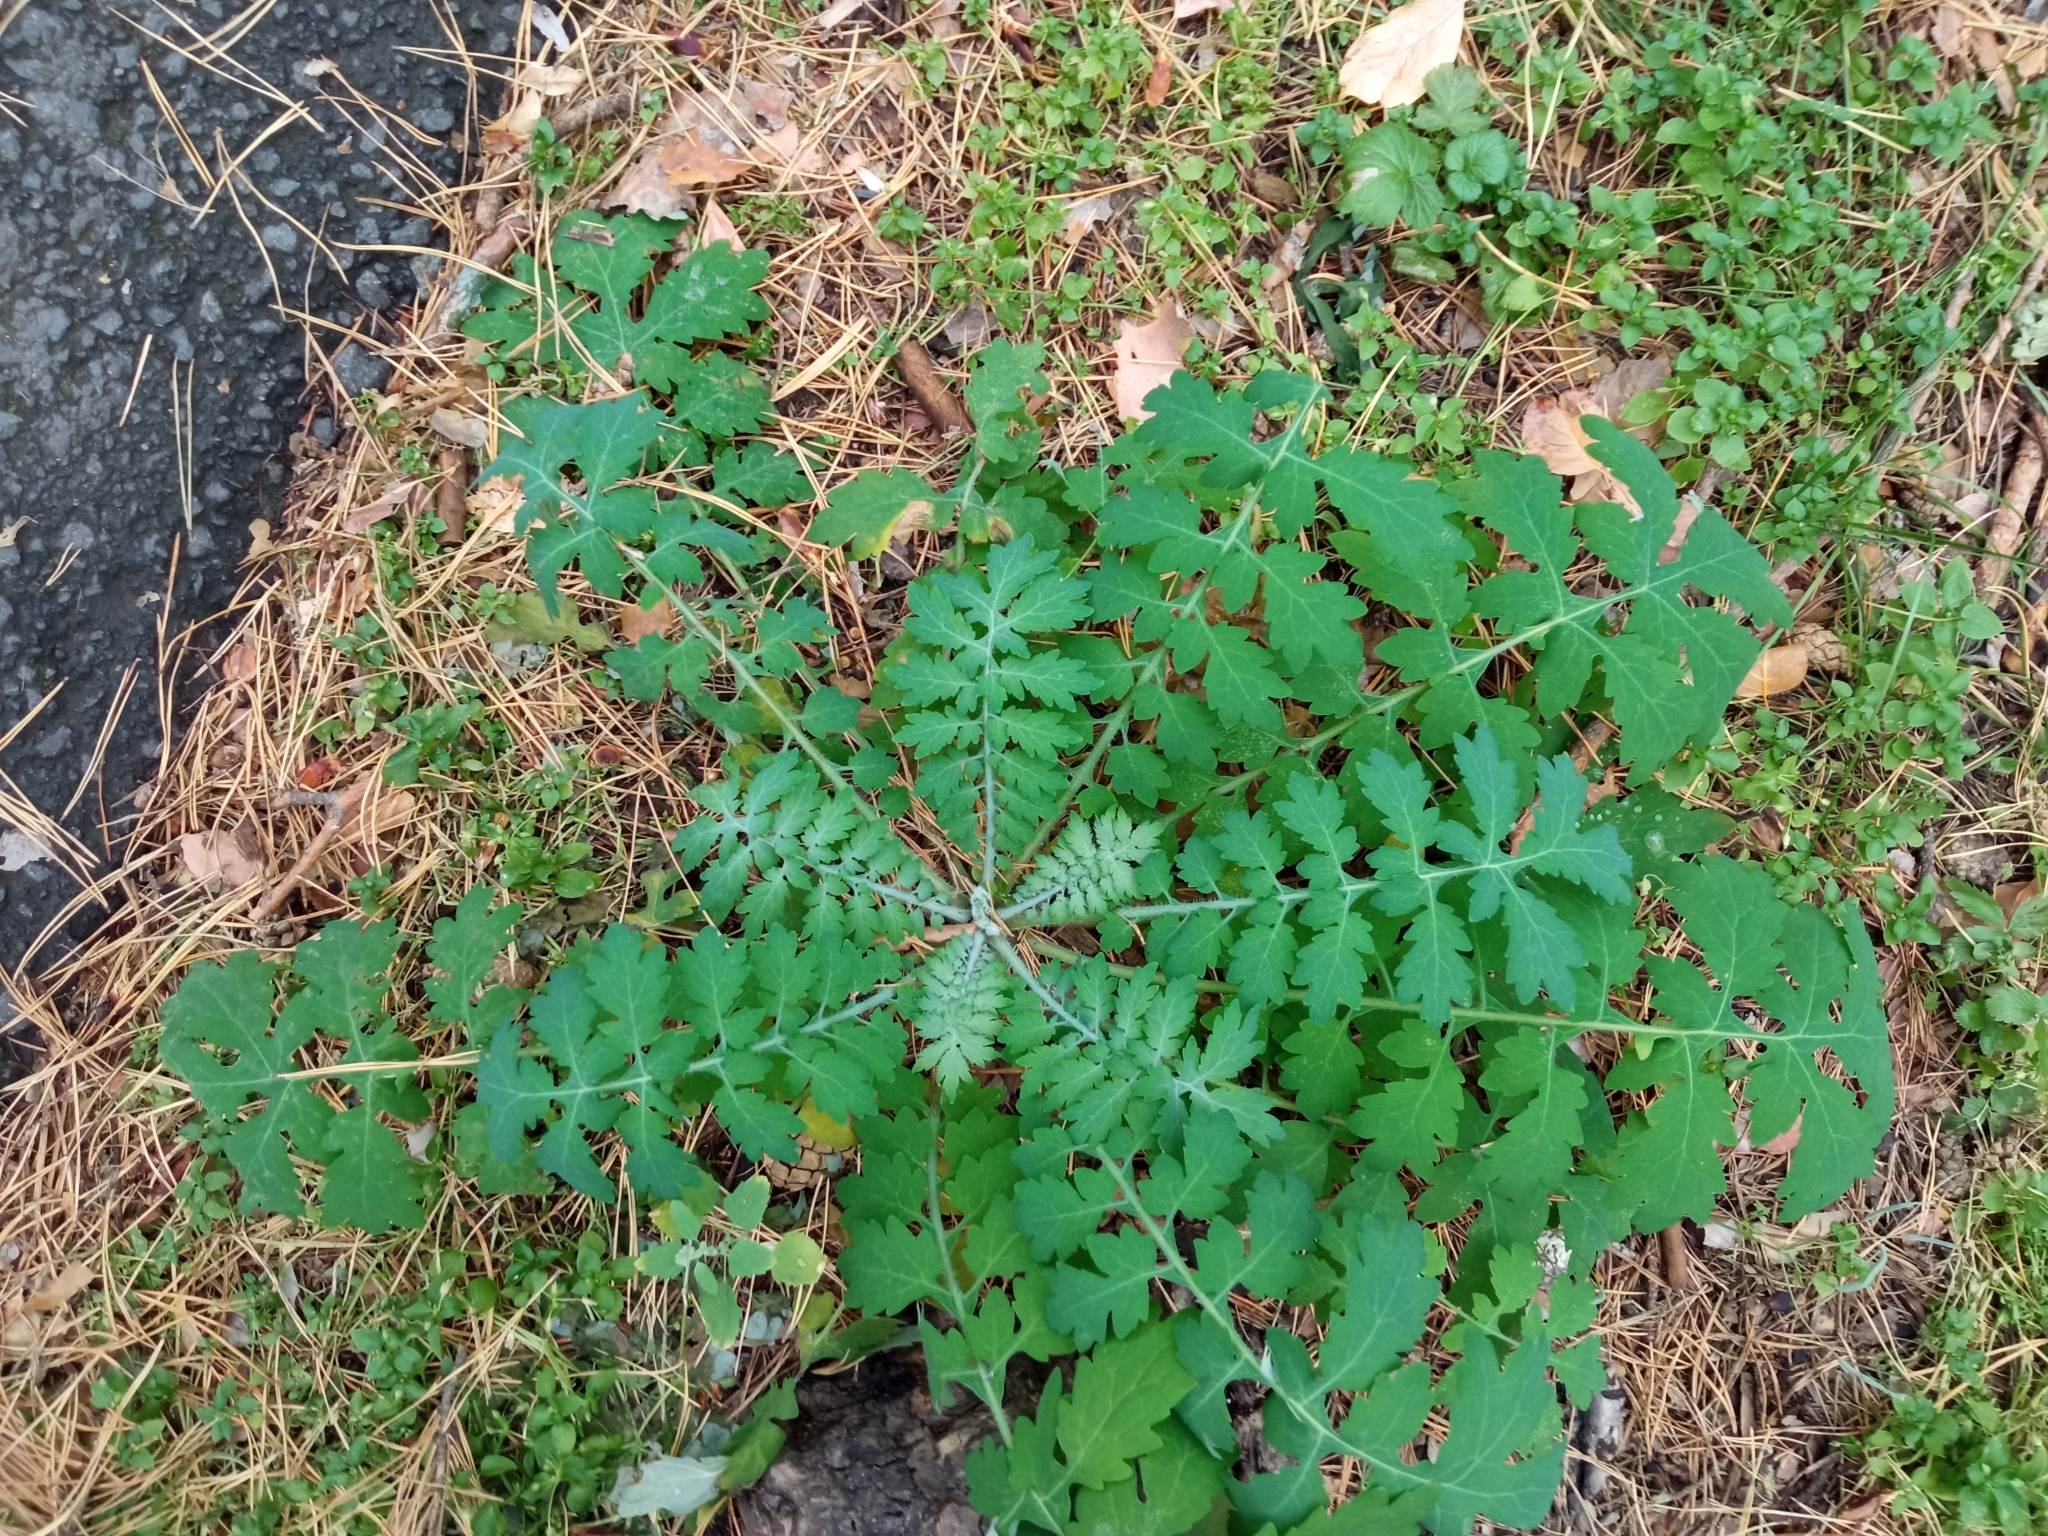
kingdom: Plantae
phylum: Tracheophyta
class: Magnoliopsida
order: Ranunculales
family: Papaveraceae
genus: Chelidonium
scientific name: Chelidonium majus
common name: Greater celandine
